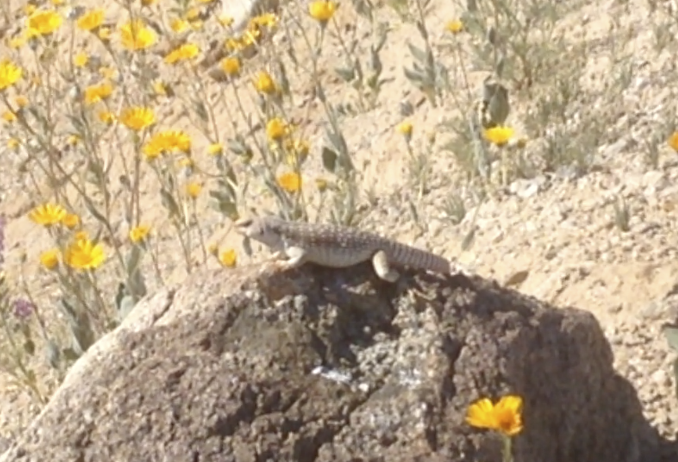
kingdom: Animalia
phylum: Chordata
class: Squamata
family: Iguanidae
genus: Dipsosaurus
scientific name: Dipsosaurus dorsalis
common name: Desert iguana
